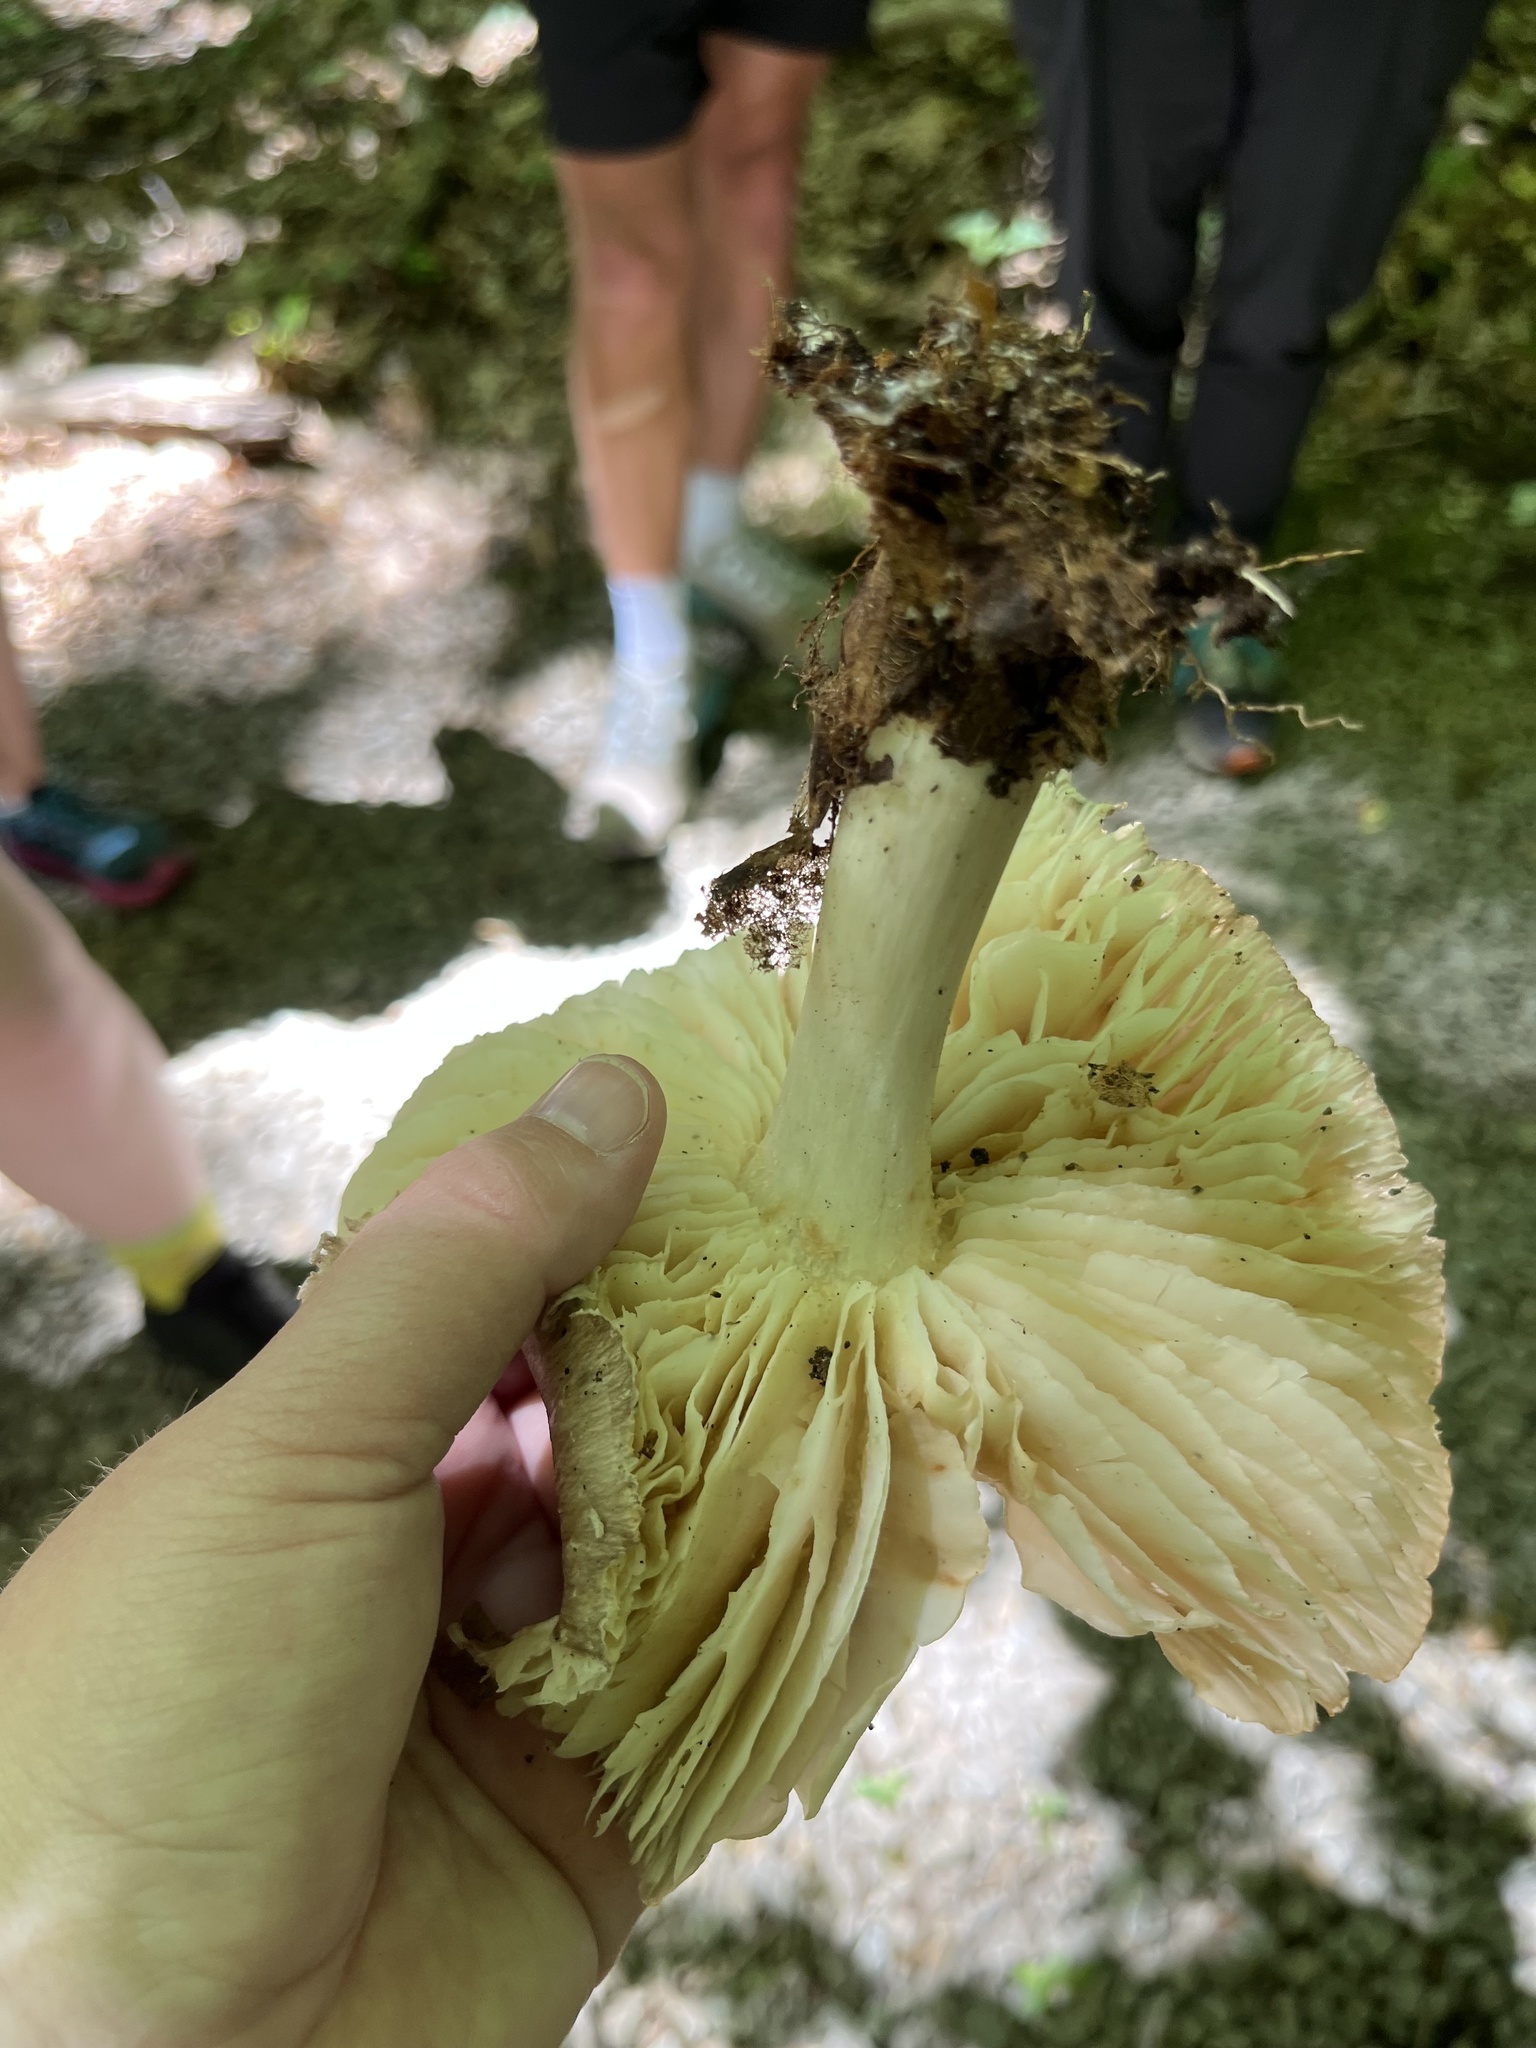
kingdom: Fungi
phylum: Basidiomycota
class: Agaricomycetes
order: Agaricales
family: Tricholomataceae
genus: Megacollybia
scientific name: Megacollybia rodmanii
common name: Eastern american platterful mushroom
